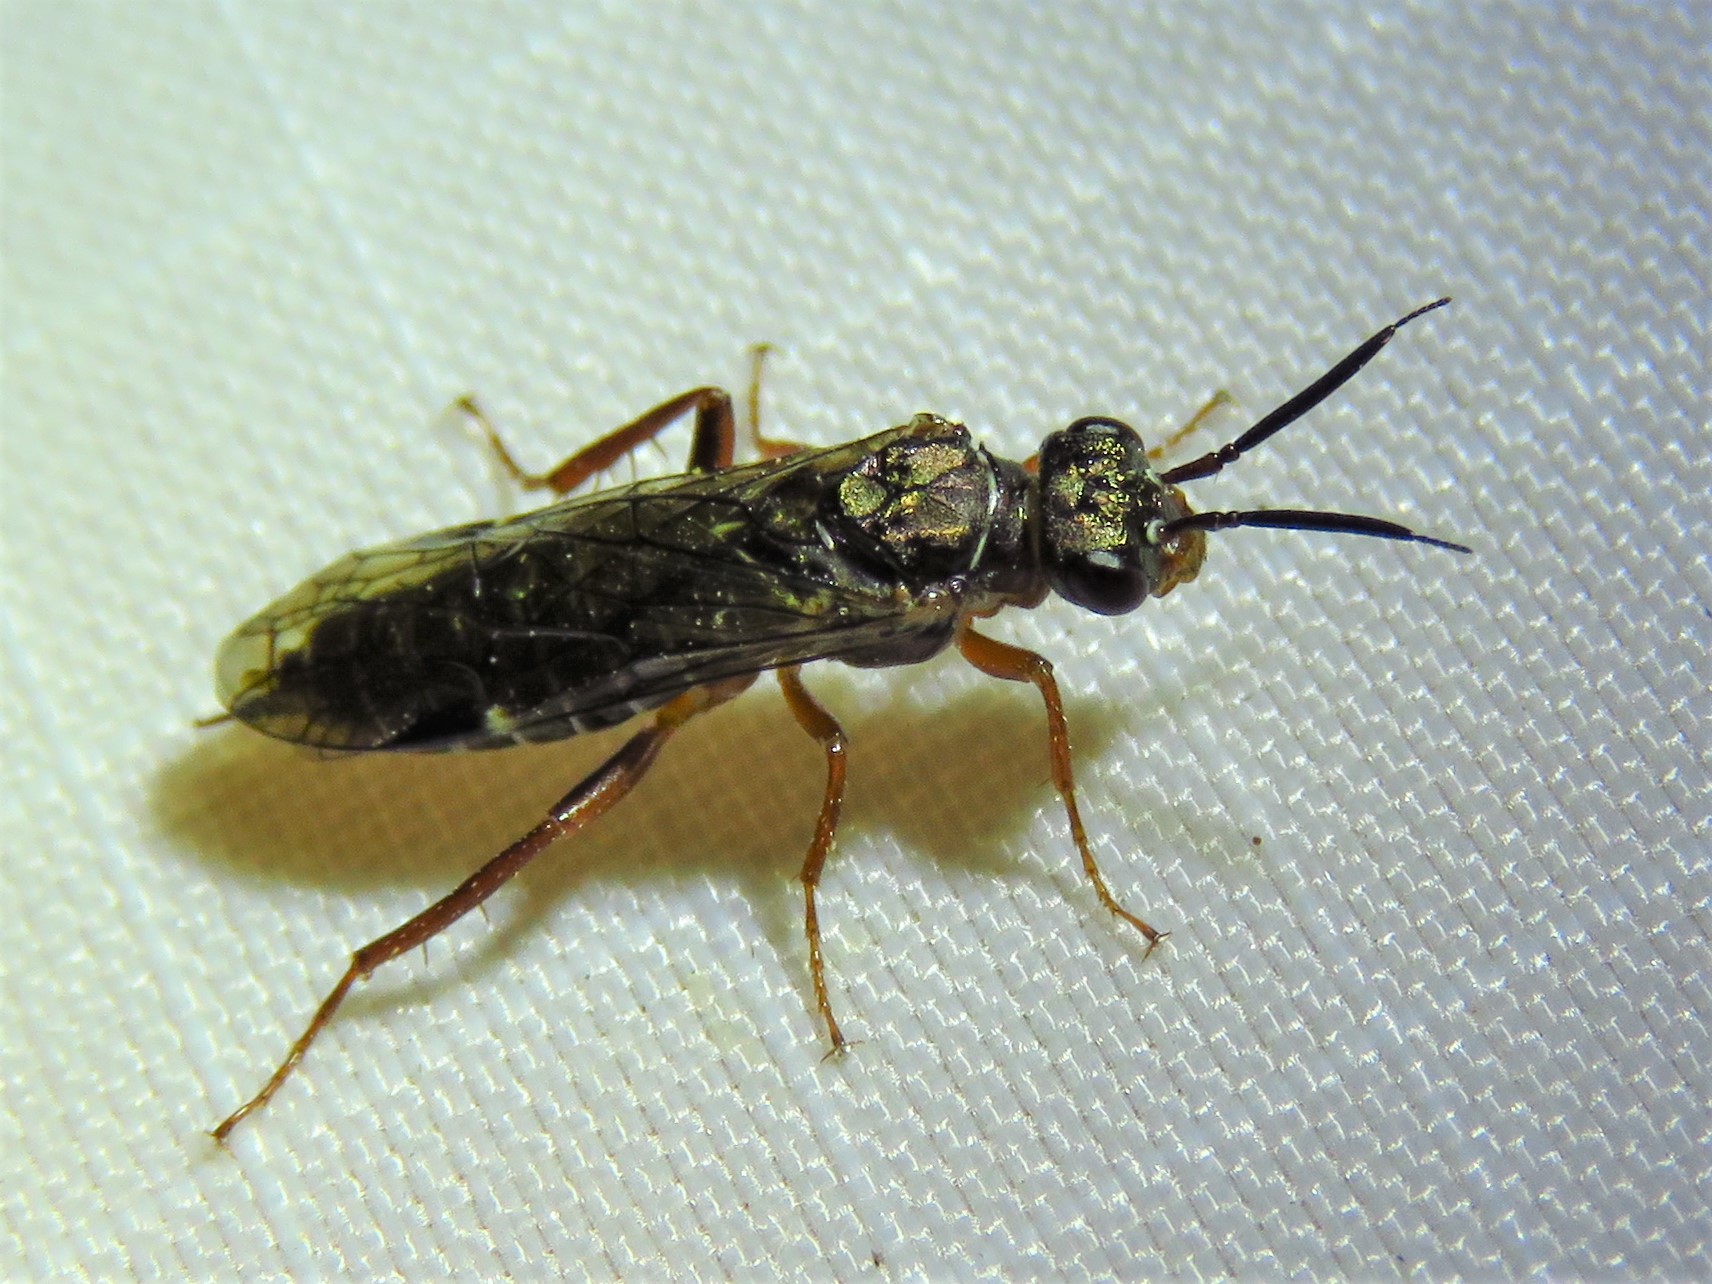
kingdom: Animalia
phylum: Arthropoda
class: Insecta
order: Hymenoptera
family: Xyelidae
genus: Macroxyela
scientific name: Macroxyela
